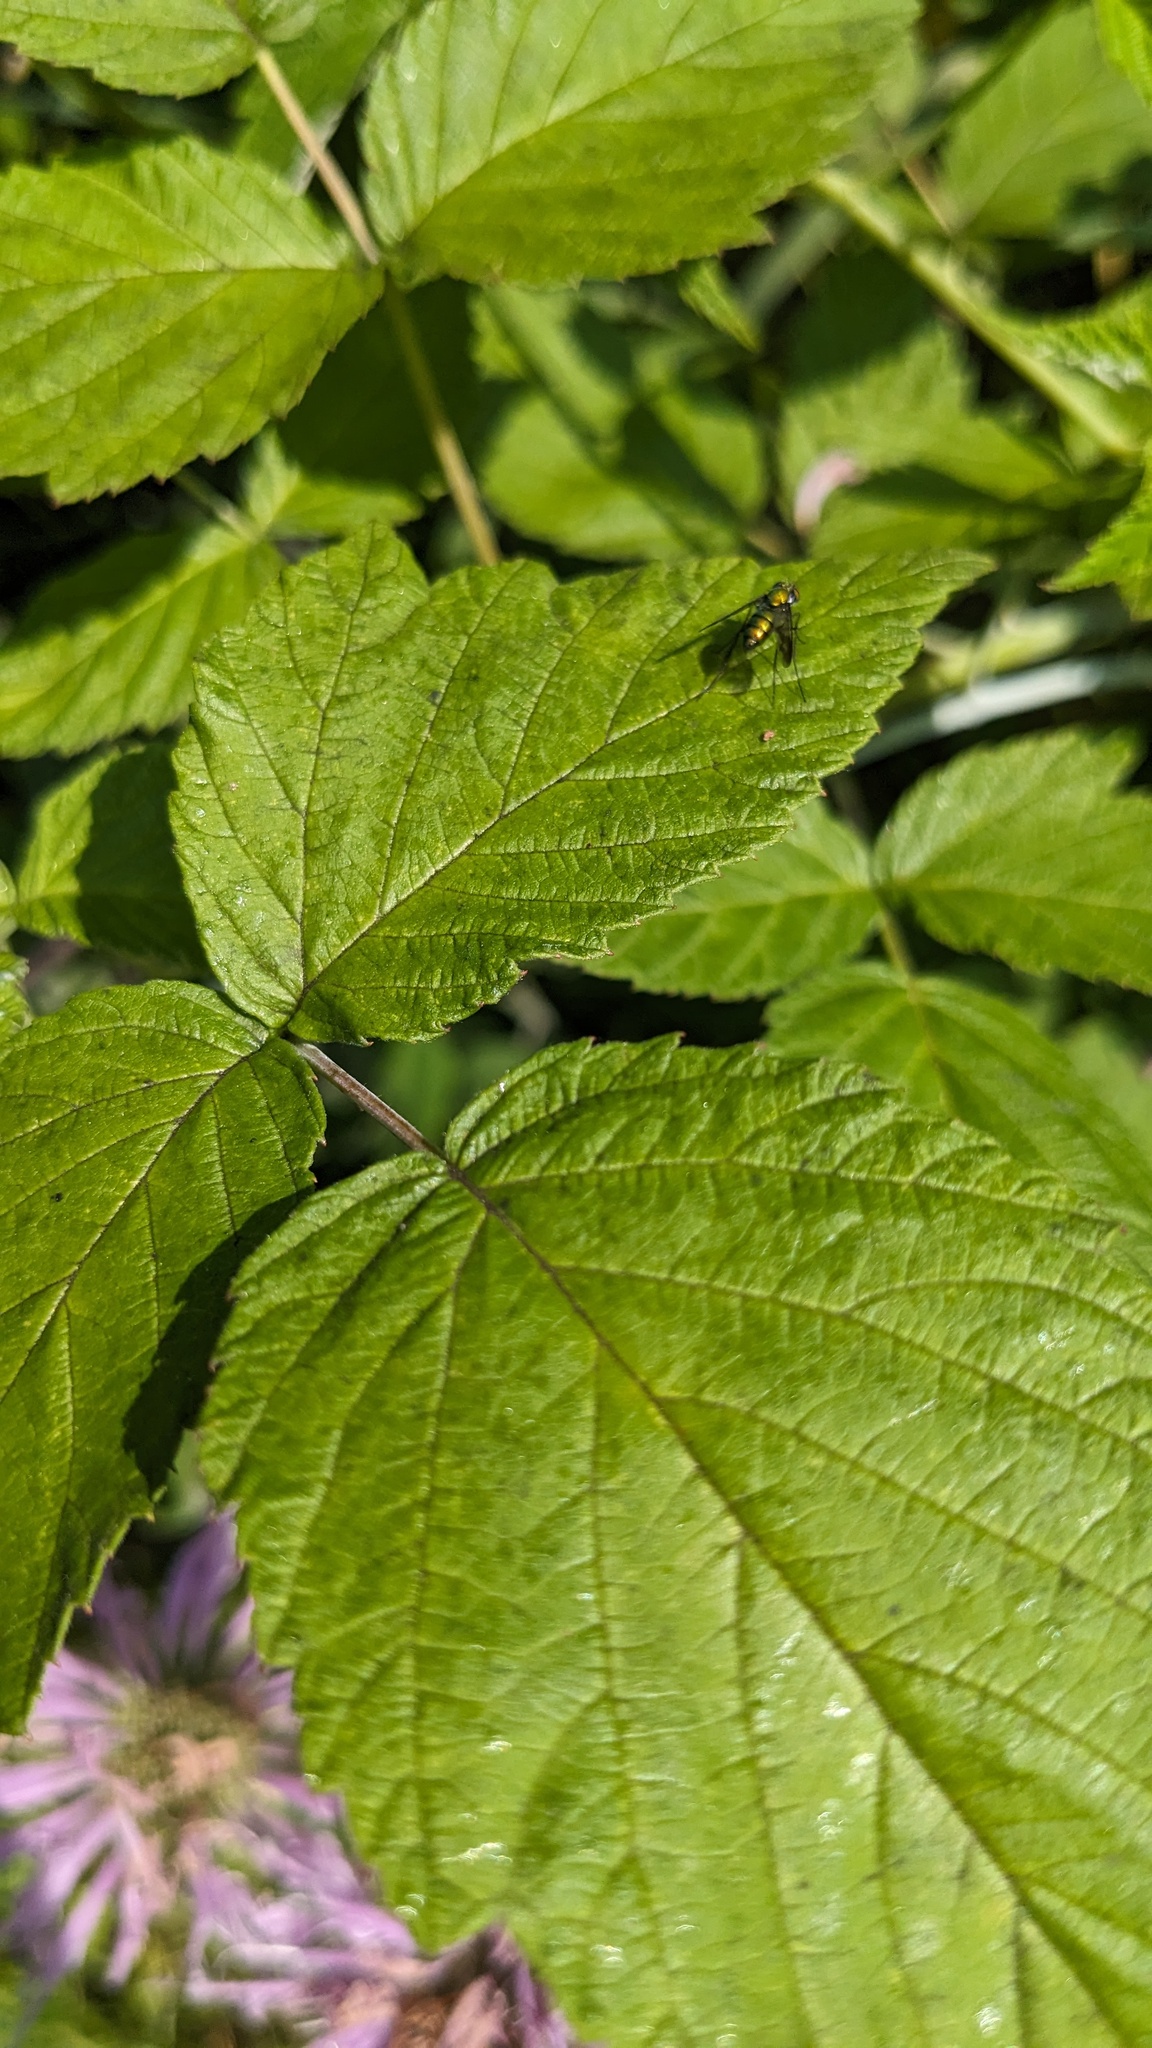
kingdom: Animalia
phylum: Arthropoda
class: Insecta
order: Diptera
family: Dolichopodidae
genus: Condylostylus
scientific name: Condylostylus patibulatus
